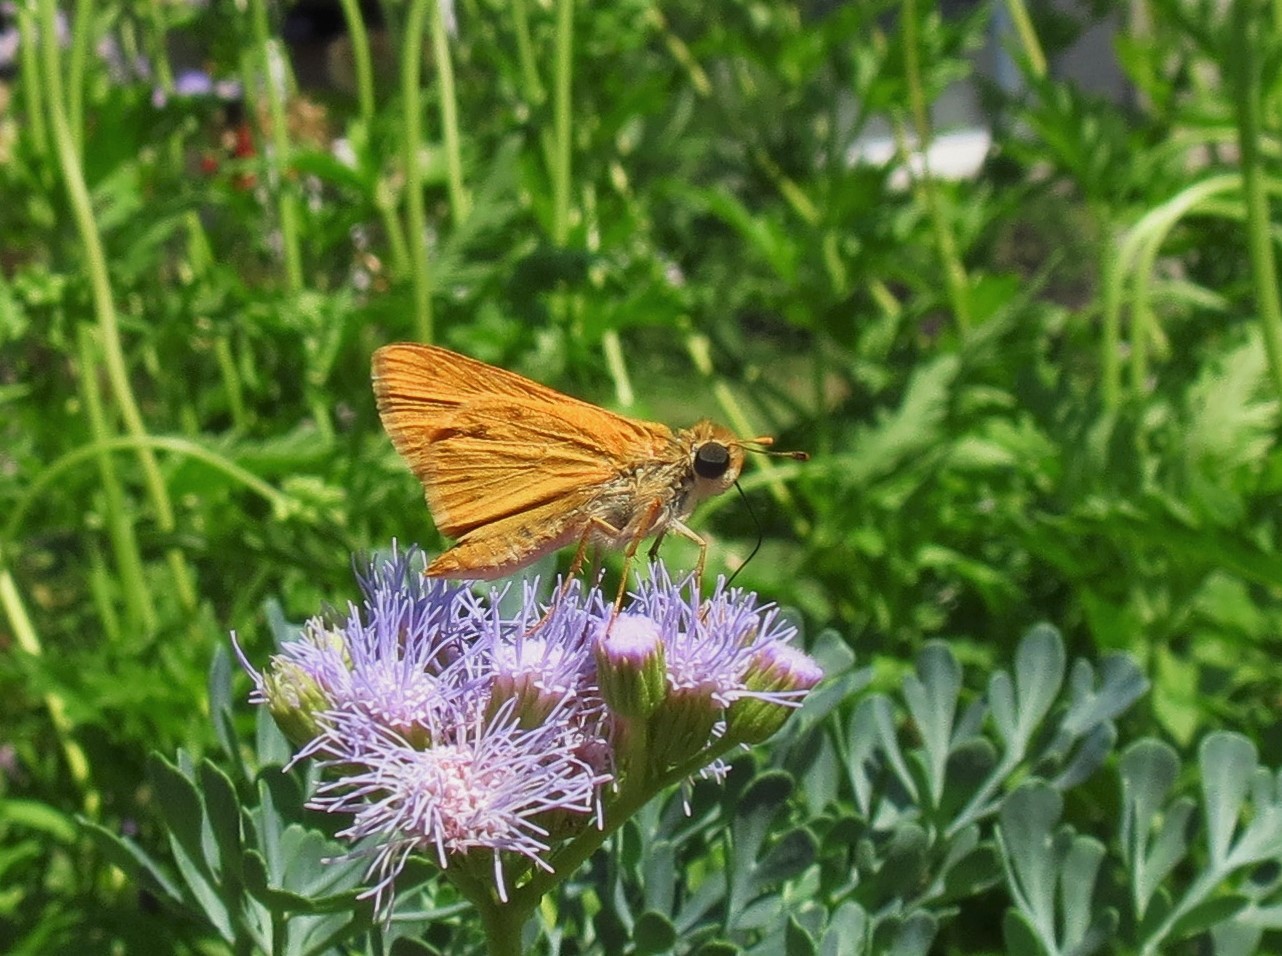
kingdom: Animalia
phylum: Arthropoda
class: Insecta
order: Lepidoptera
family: Hesperiidae
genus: Hylephila
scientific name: Hylephila phyleus
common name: Fiery skipper
